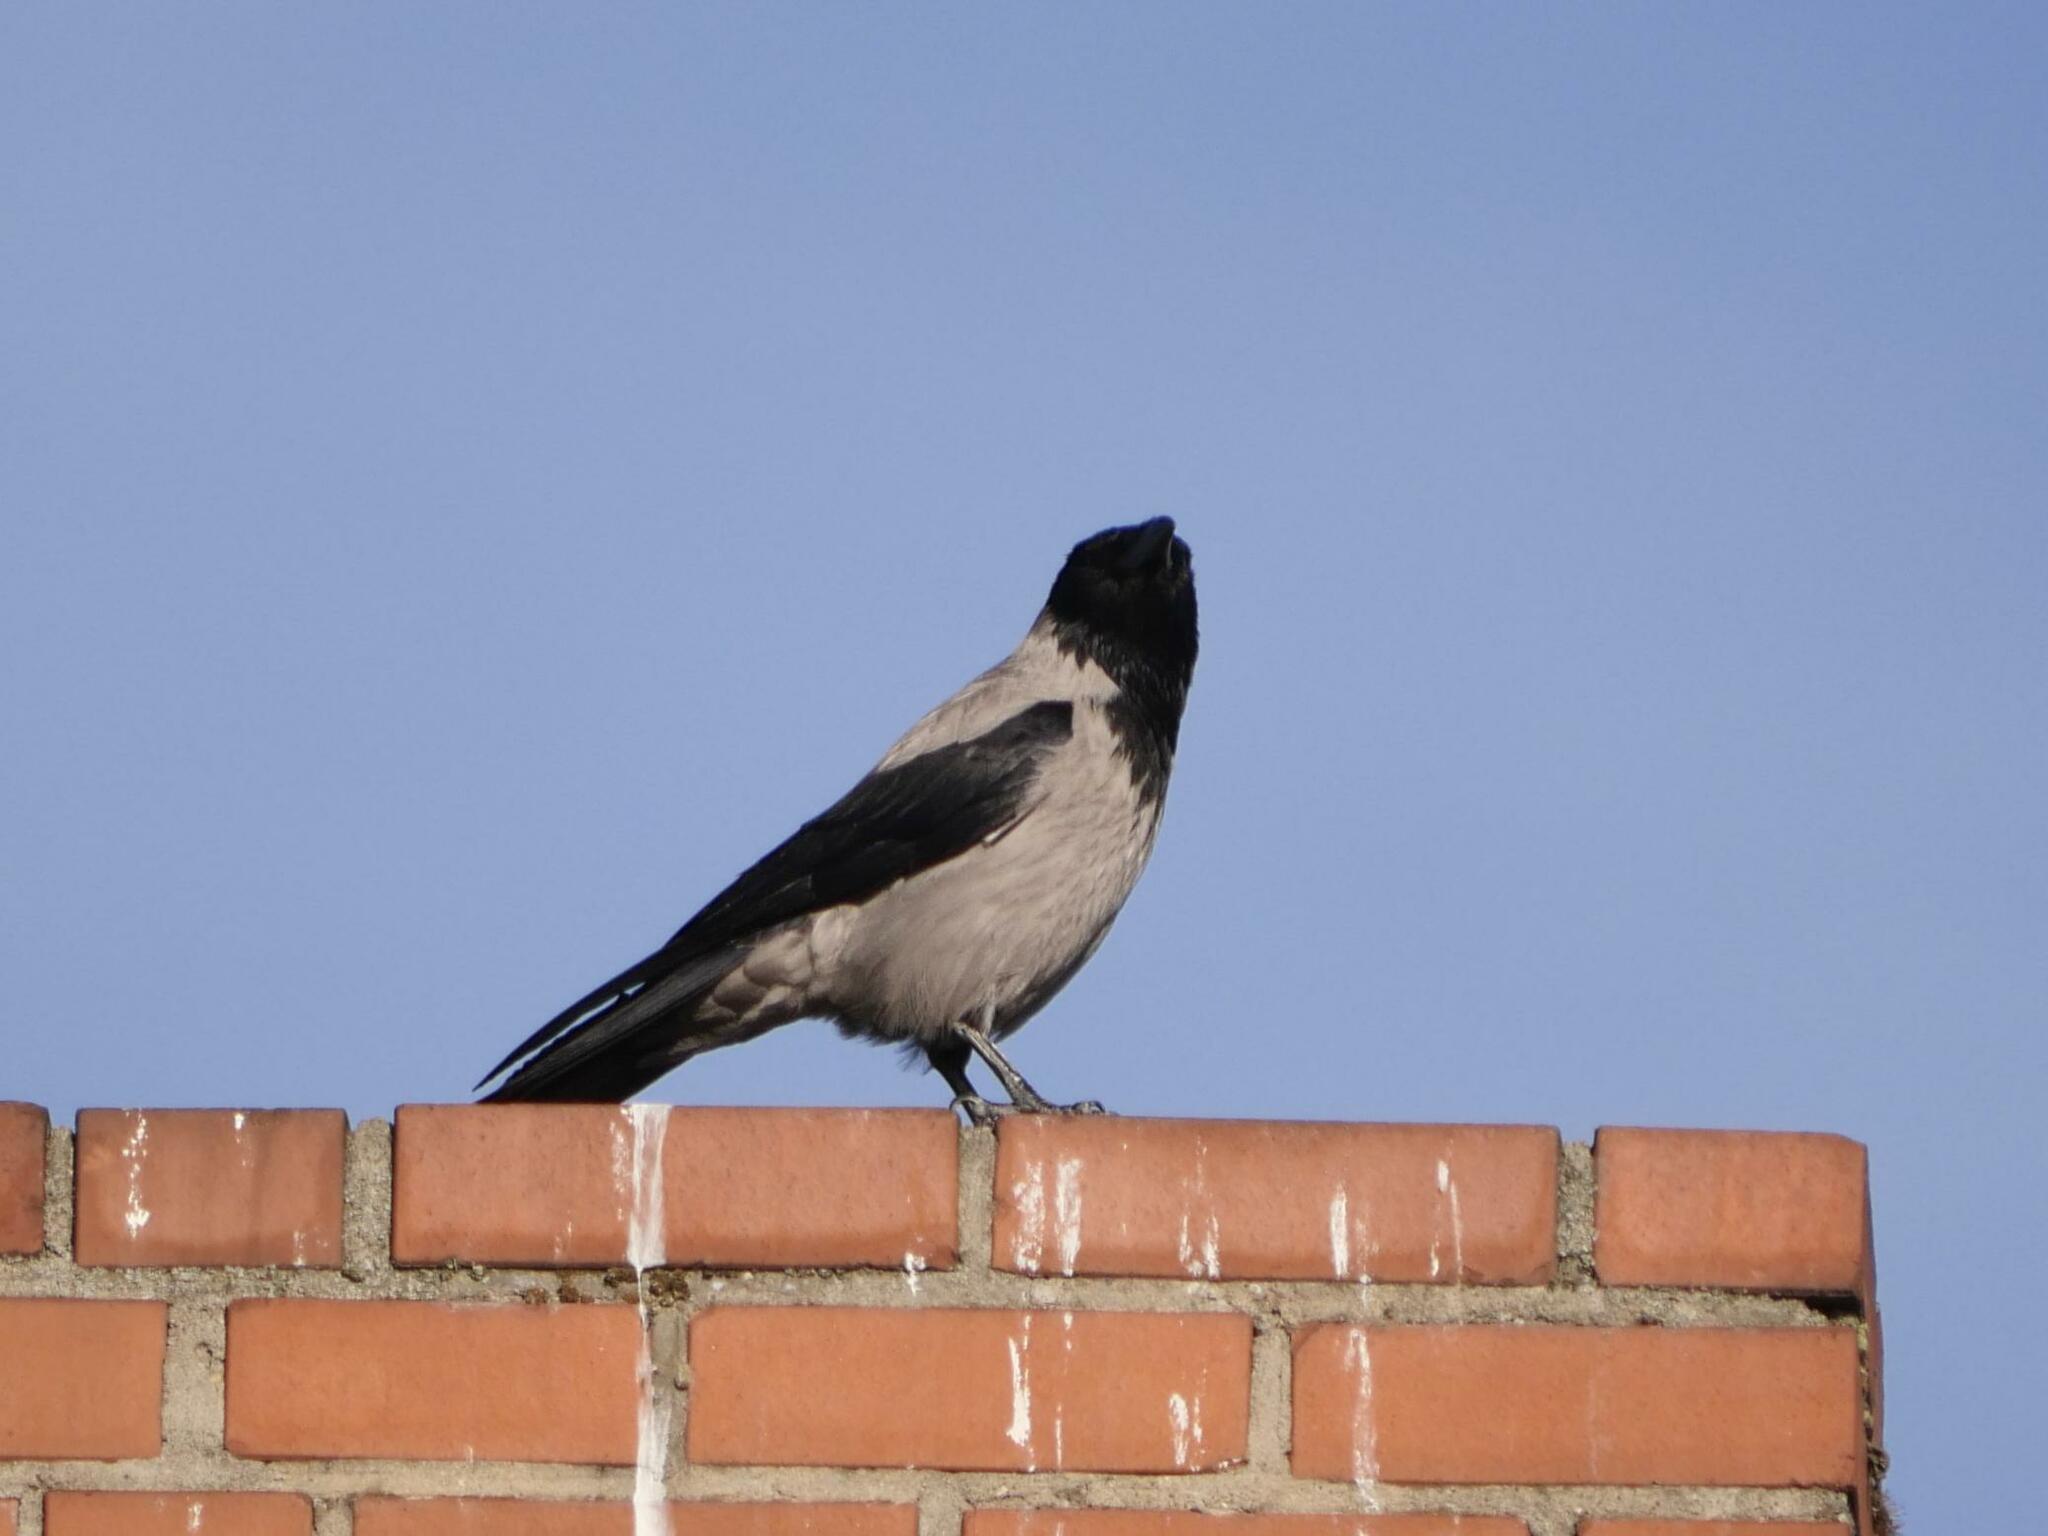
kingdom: Animalia
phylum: Chordata
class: Aves
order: Passeriformes
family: Corvidae
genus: Corvus
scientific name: Corvus cornix
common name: Hooded crow
